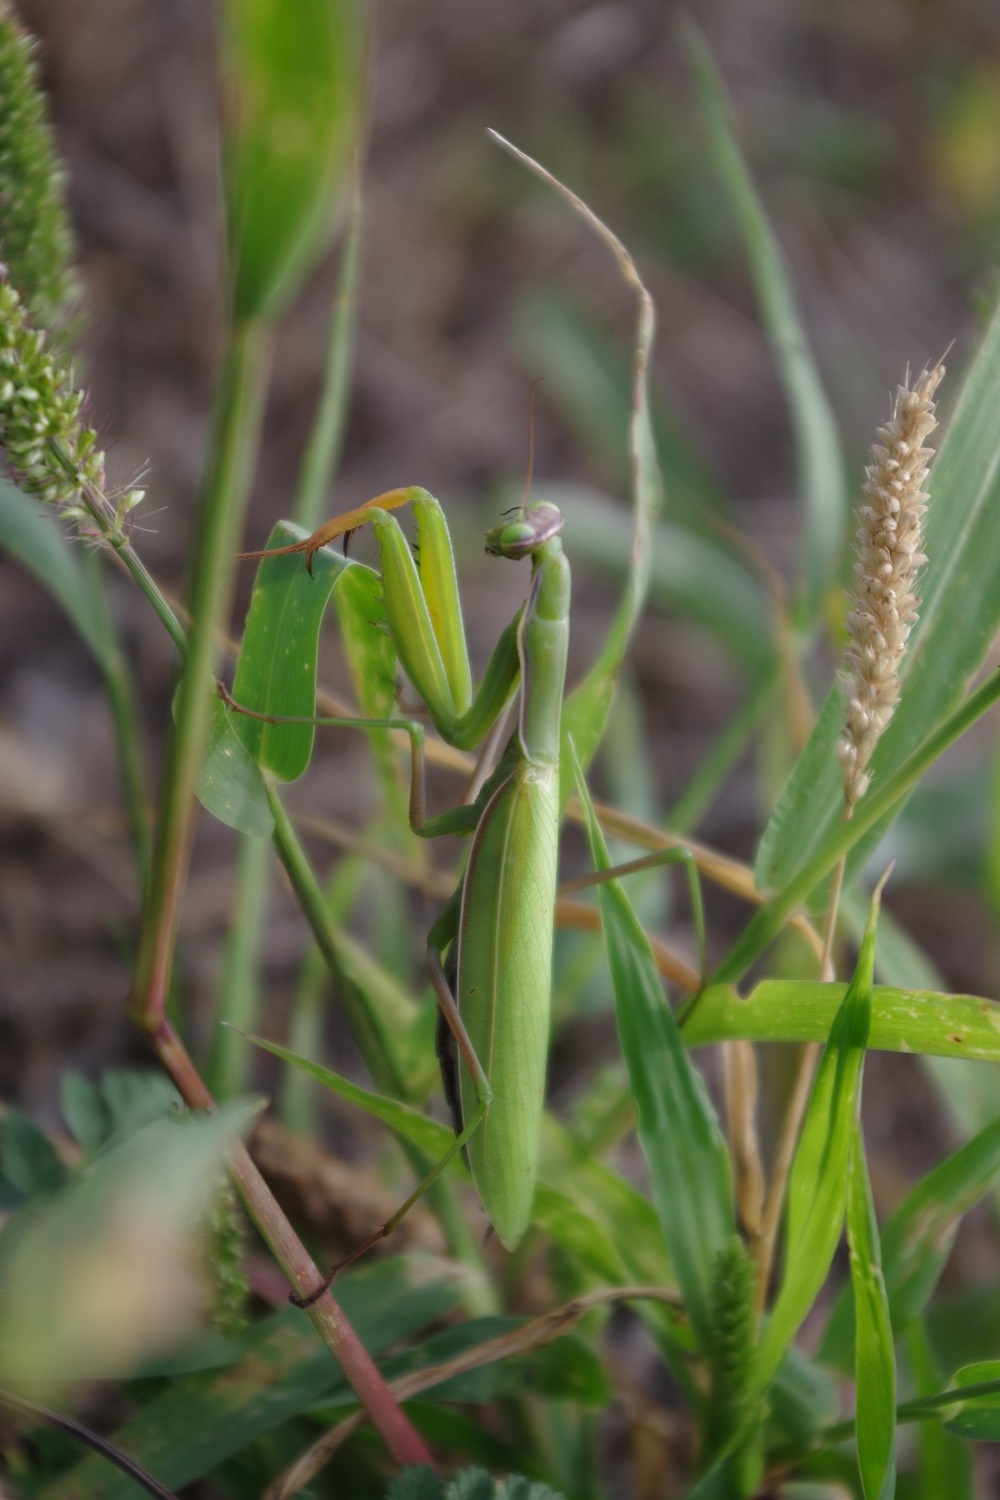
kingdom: Animalia
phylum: Arthropoda
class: Insecta
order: Mantodea
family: Mantidae
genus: Mantis
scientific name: Mantis religiosa
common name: Praying mantis
